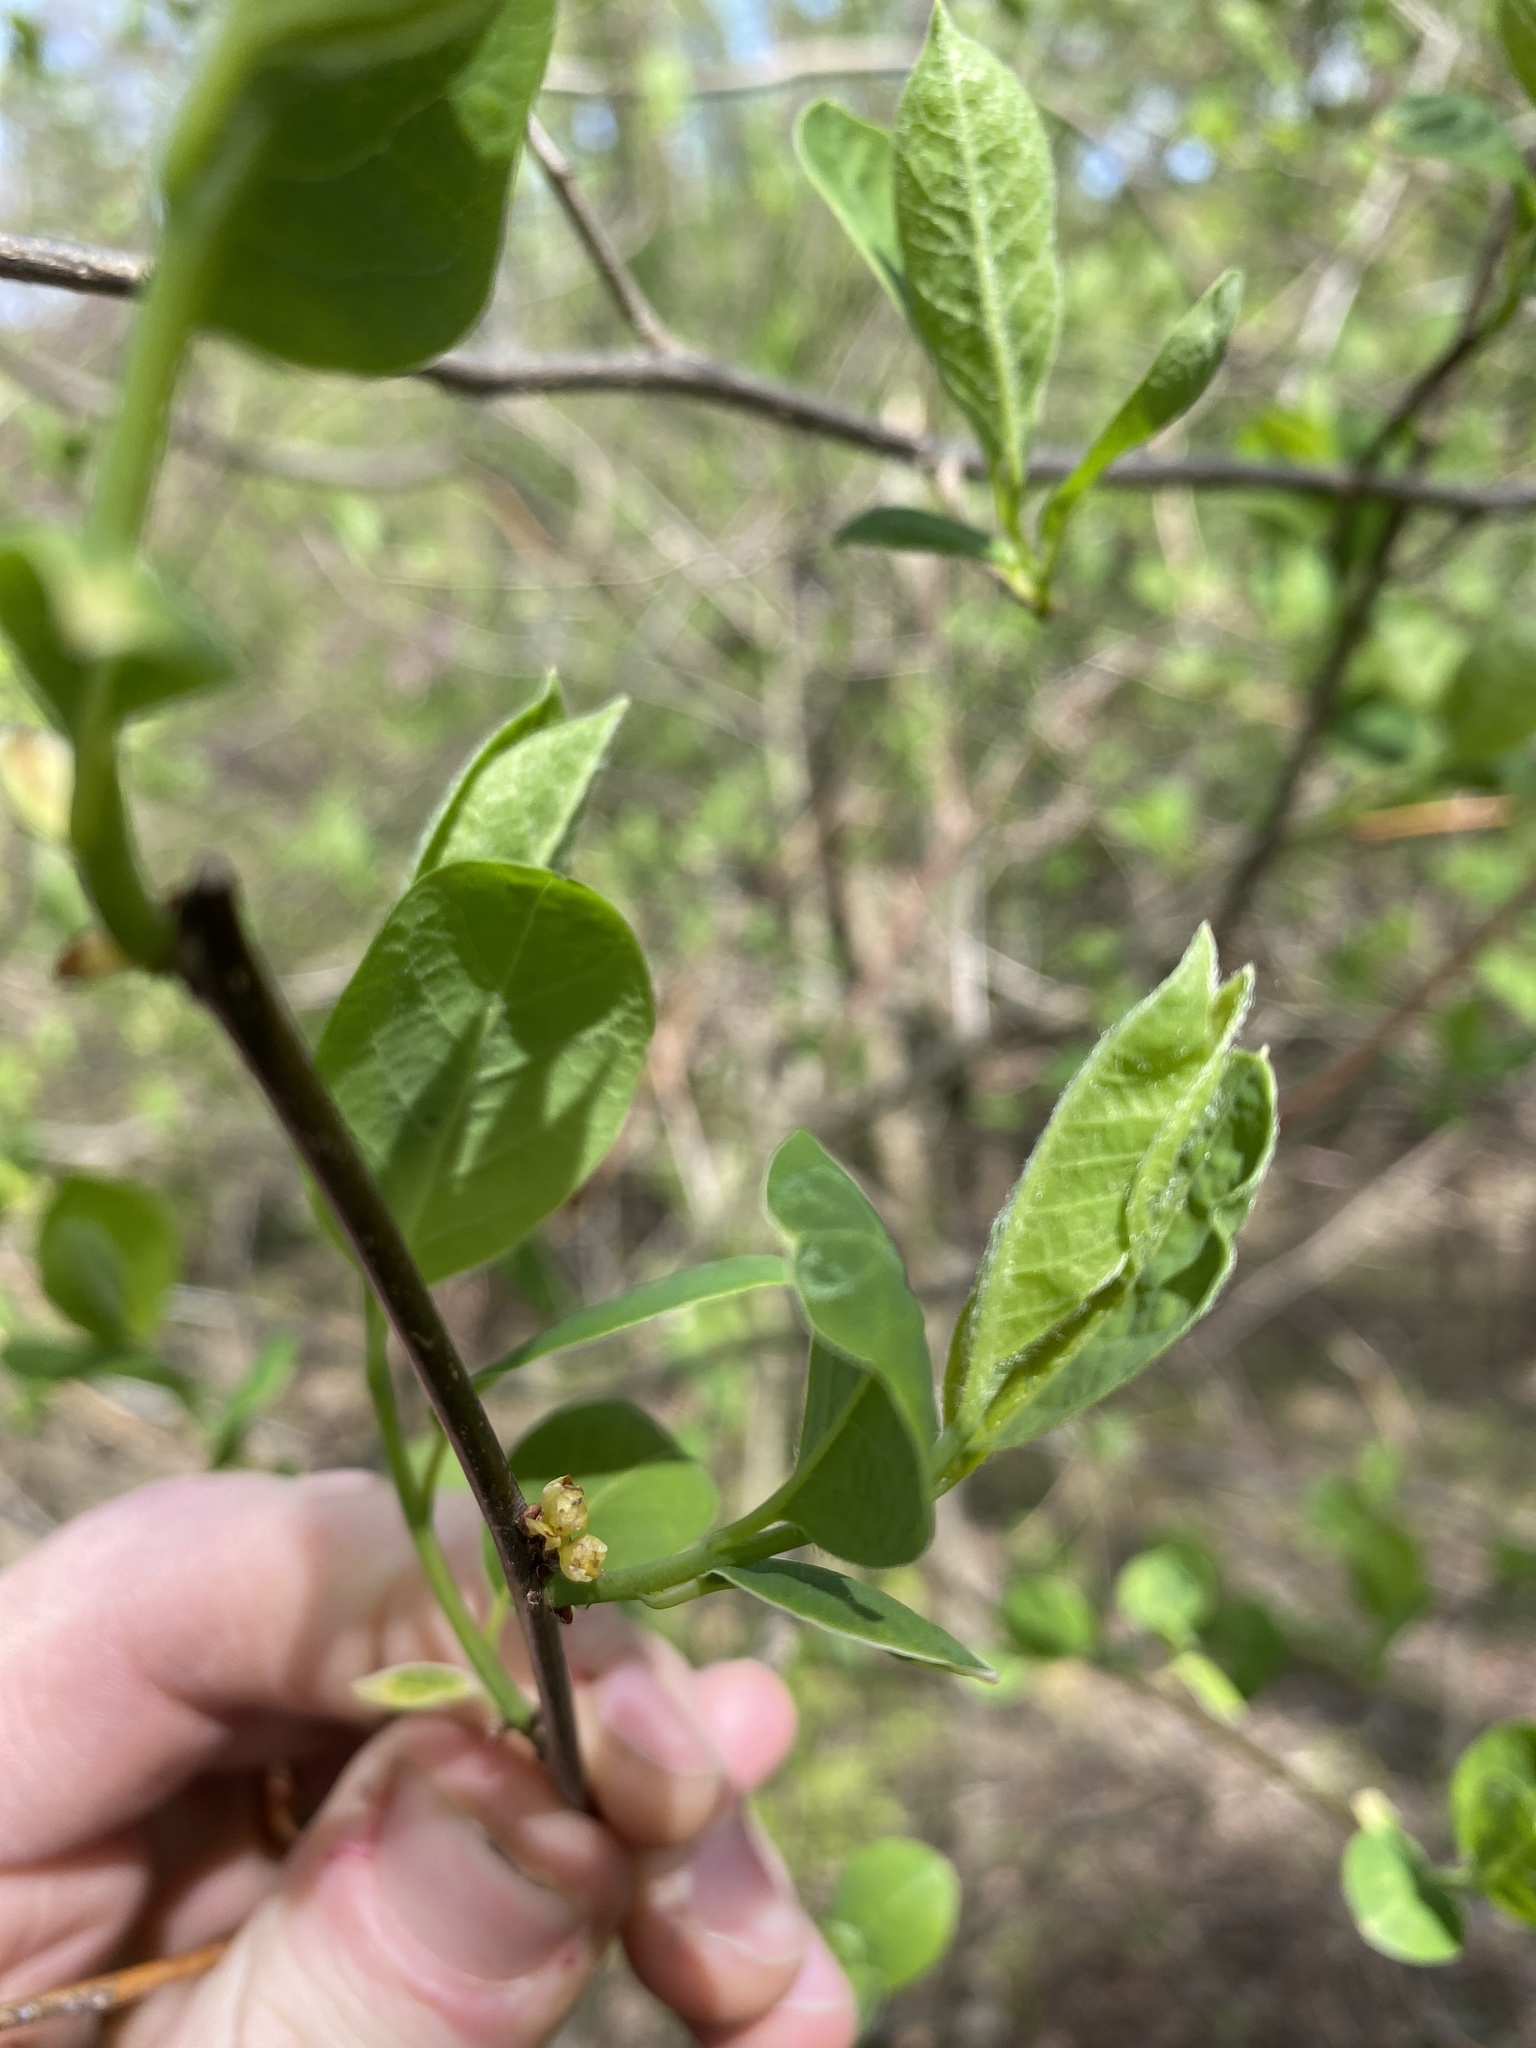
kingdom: Plantae
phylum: Tracheophyta
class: Magnoliopsida
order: Laurales
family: Lauraceae
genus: Lindera
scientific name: Lindera benzoin
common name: Spicebush
